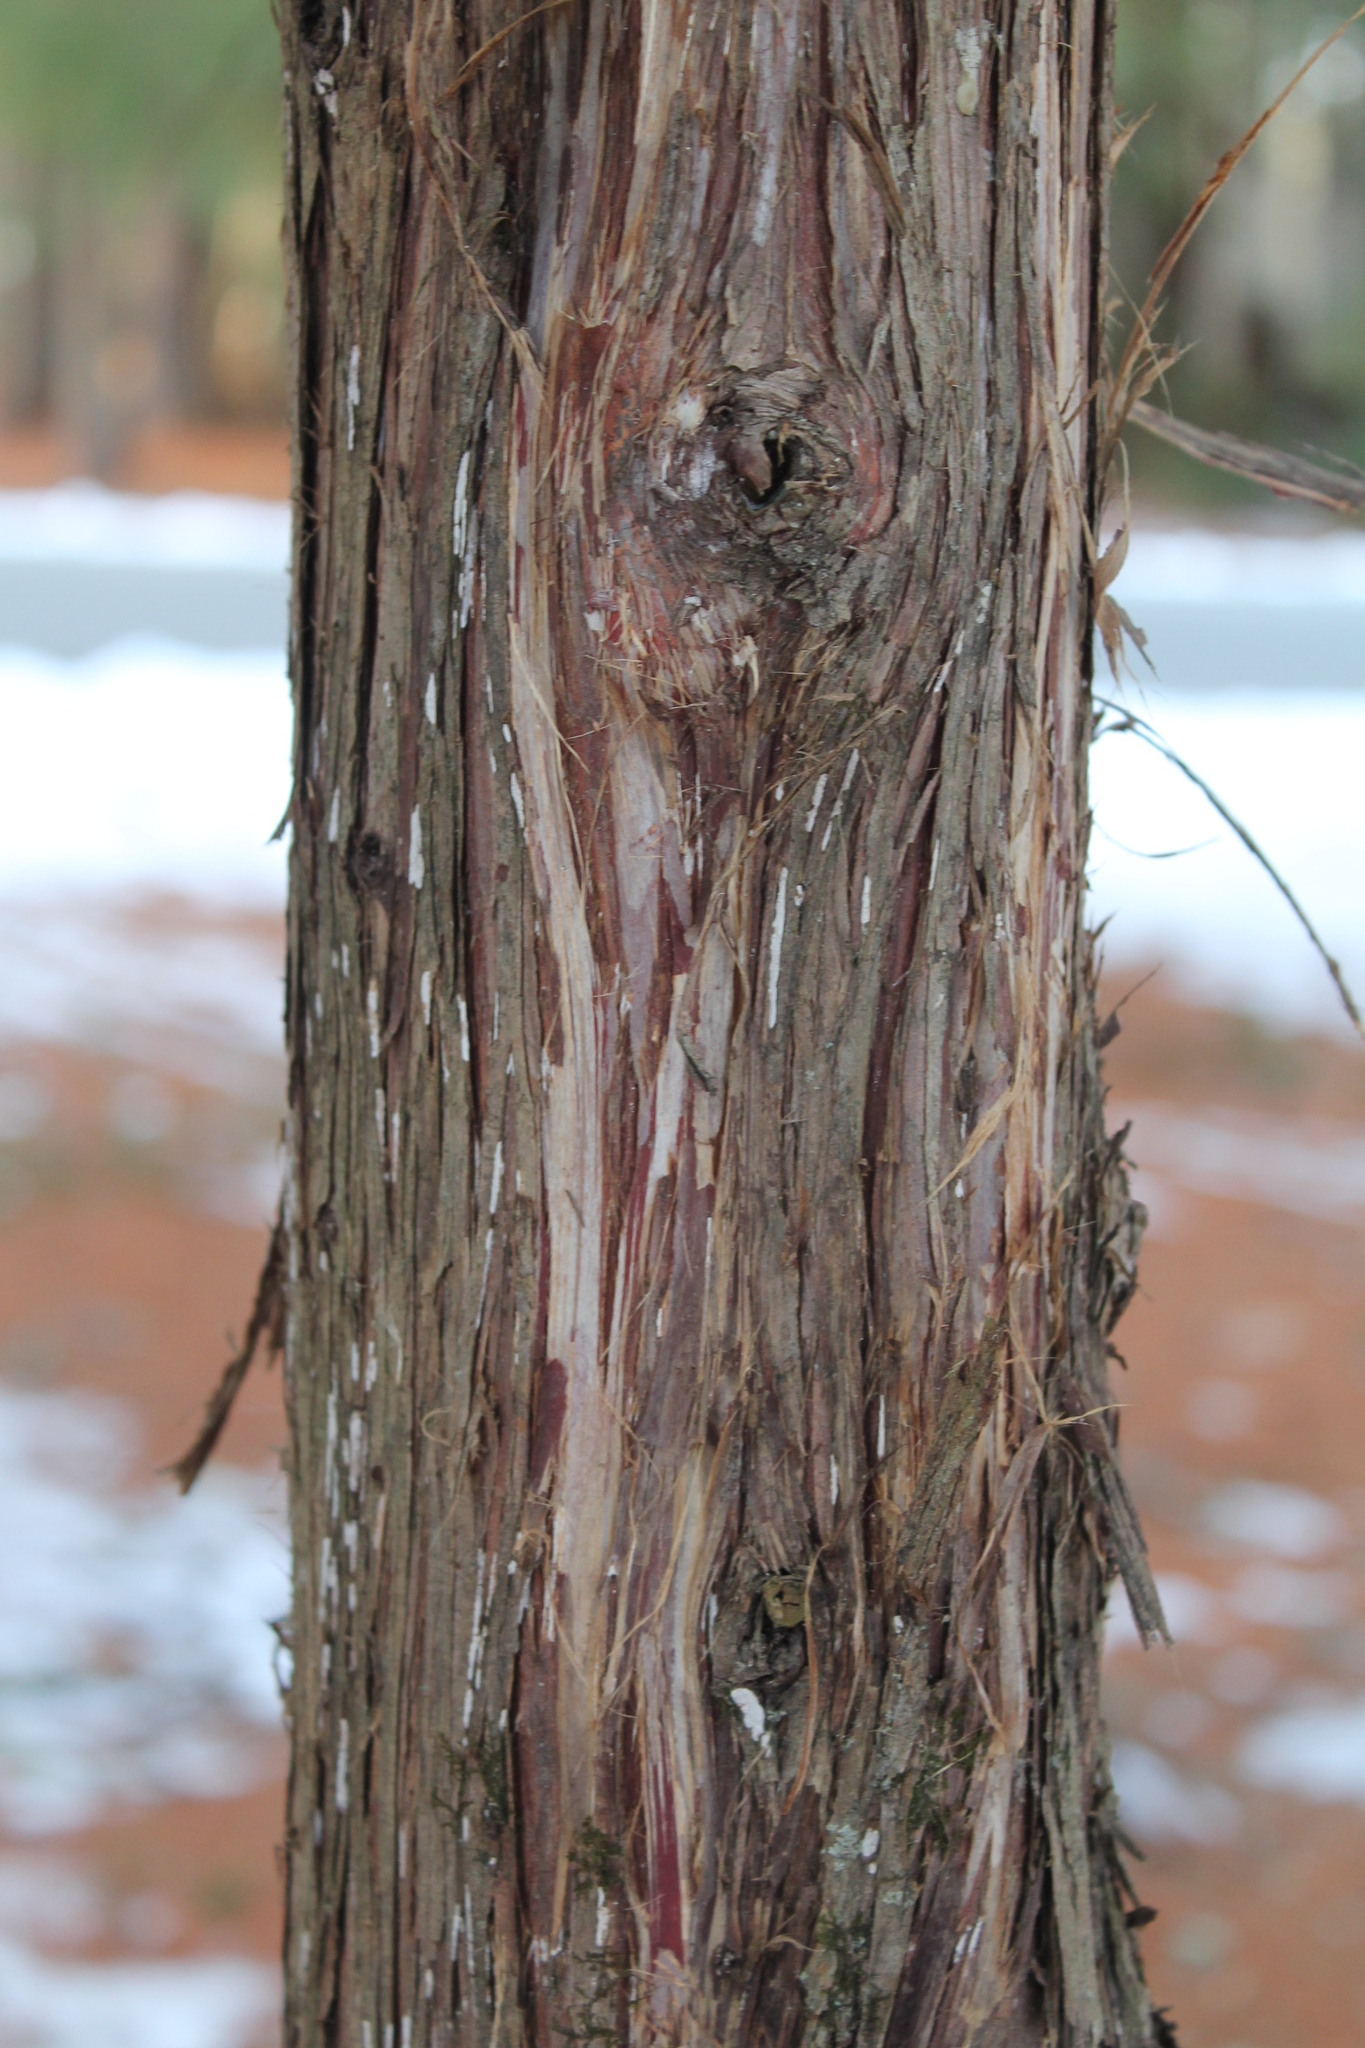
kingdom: Plantae
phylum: Tracheophyta
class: Pinopsida
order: Pinales
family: Cupressaceae
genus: Juniperus
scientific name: Juniperus virginiana
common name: Red juniper
